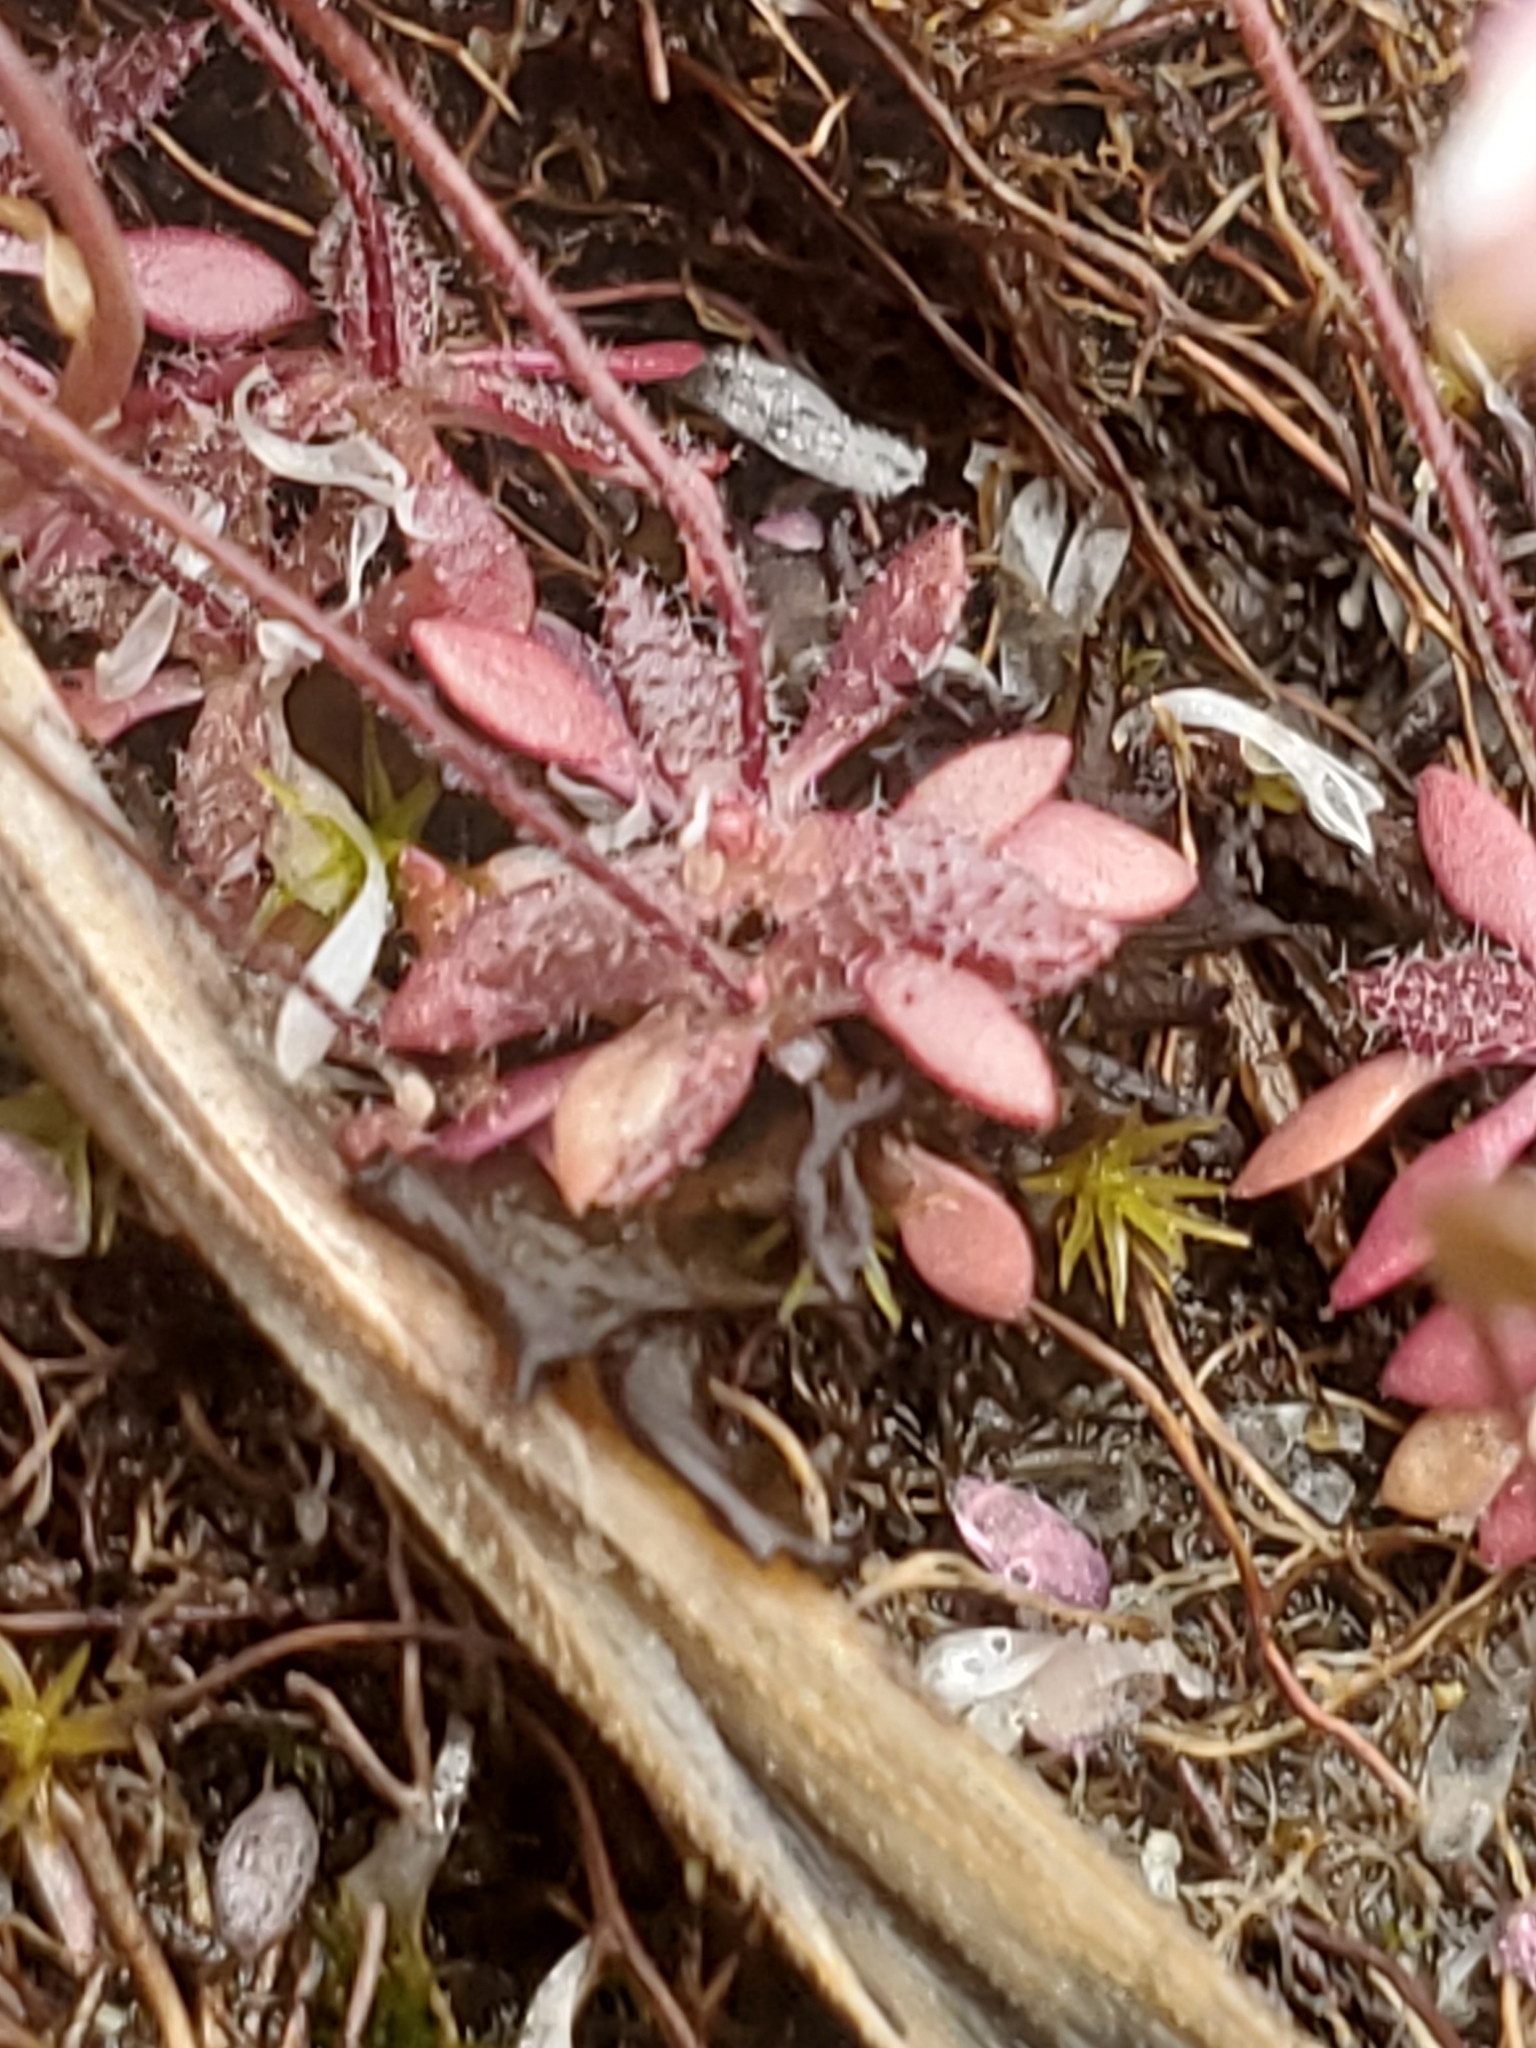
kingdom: Plantae
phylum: Tracheophyta
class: Magnoliopsida
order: Brassicales
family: Brassicaceae
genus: Draba
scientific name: Draba verna
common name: Spring draba
